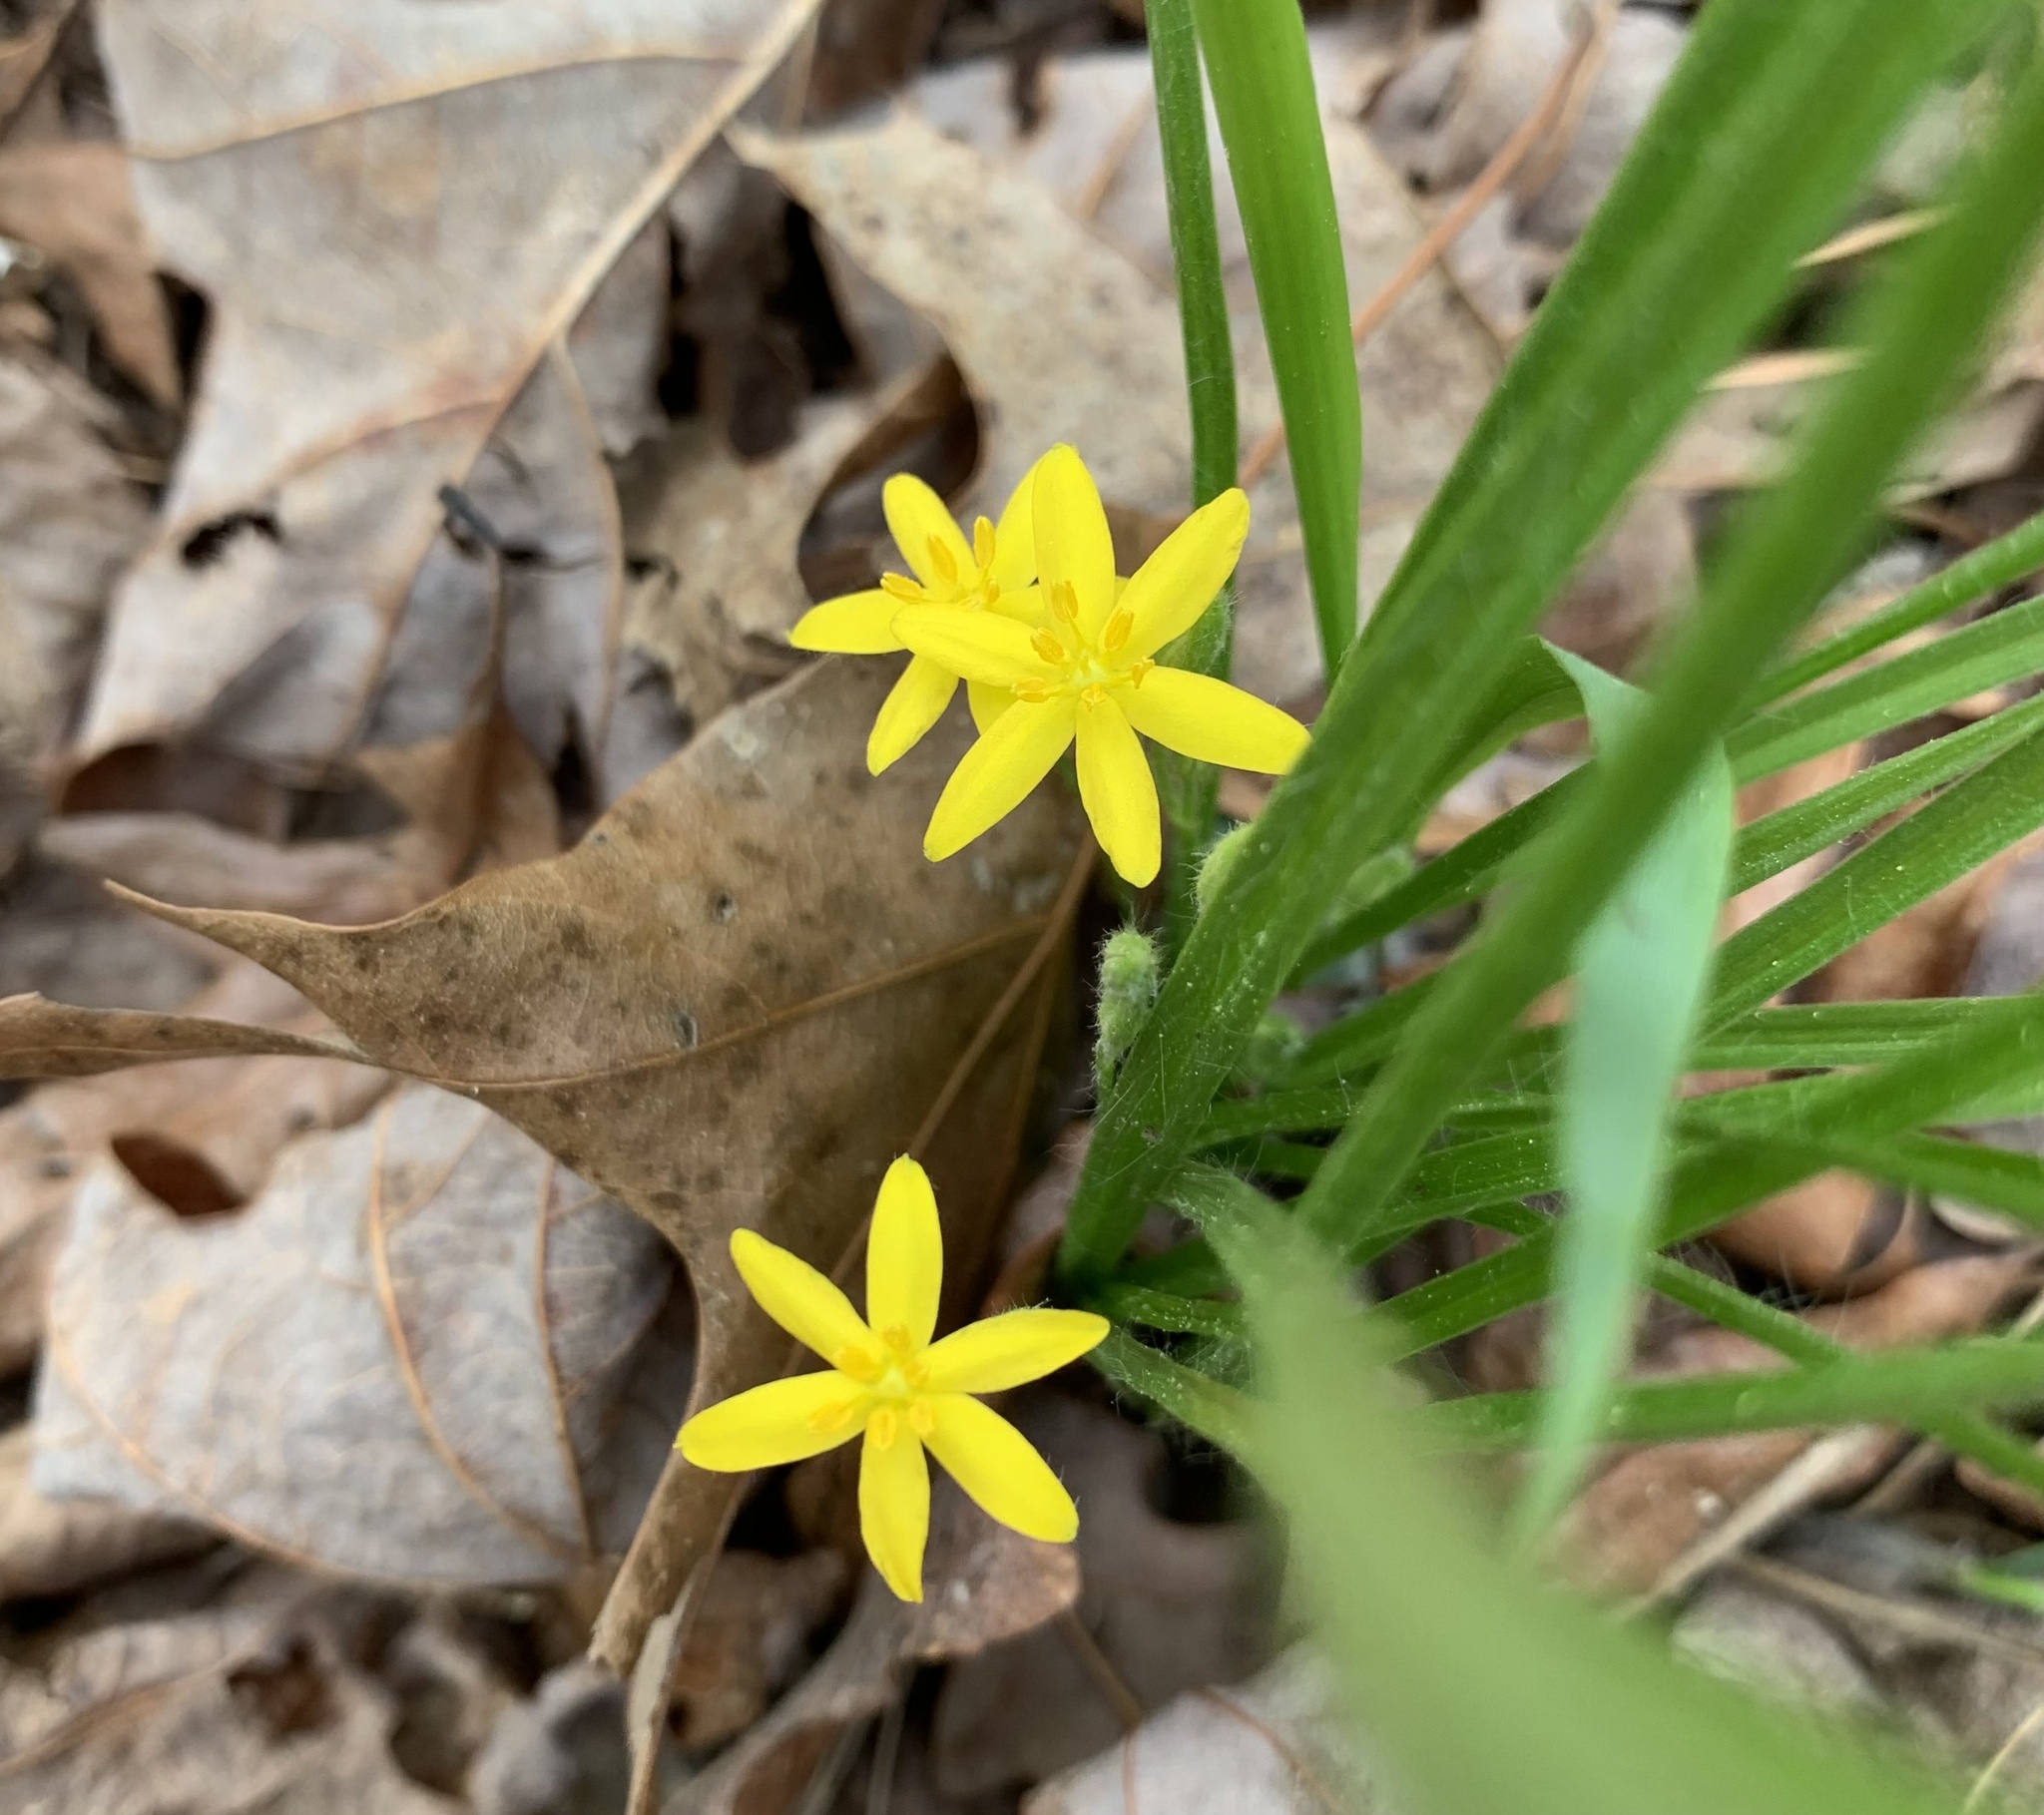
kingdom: Plantae
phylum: Tracheophyta
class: Liliopsida
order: Asparagales
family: Hypoxidaceae
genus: Hypoxis
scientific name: Hypoxis hirsuta
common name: Common goldstar
